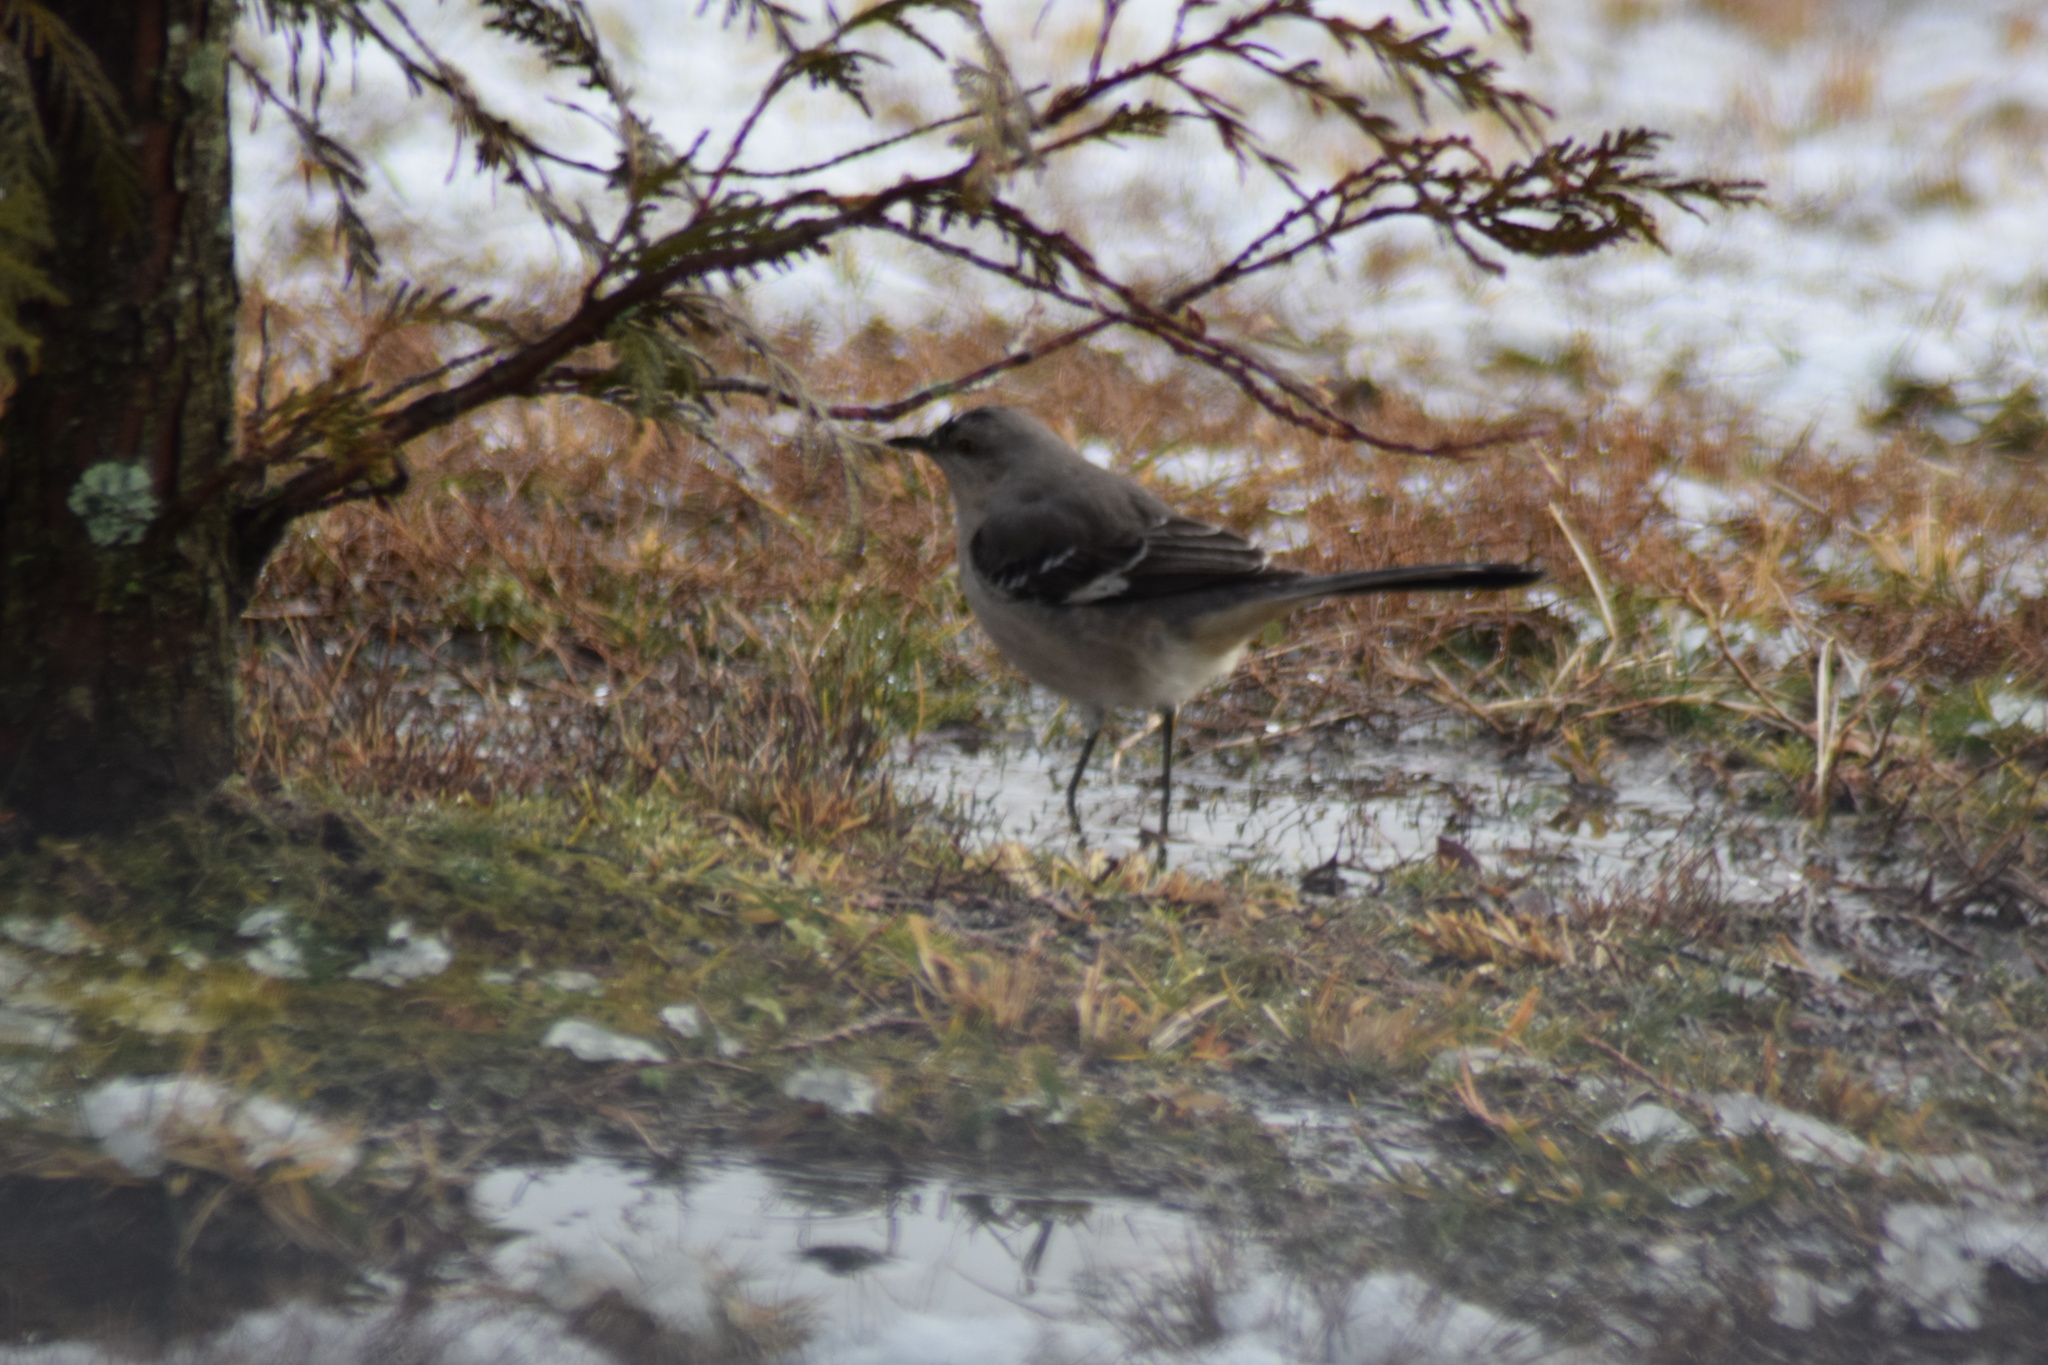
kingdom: Animalia
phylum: Chordata
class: Aves
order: Passeriformes
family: Mimidae
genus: Mimus
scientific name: Mimus polyglottos
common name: Northern mockingbird
